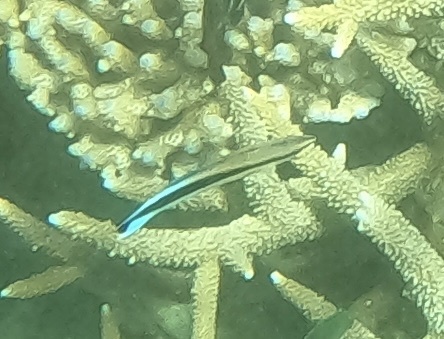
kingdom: Animalia
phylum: Chordata
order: Perciformes
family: Labridae
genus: Labroides
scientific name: Labroides dimidiatus
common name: Blue diesel wrasse
